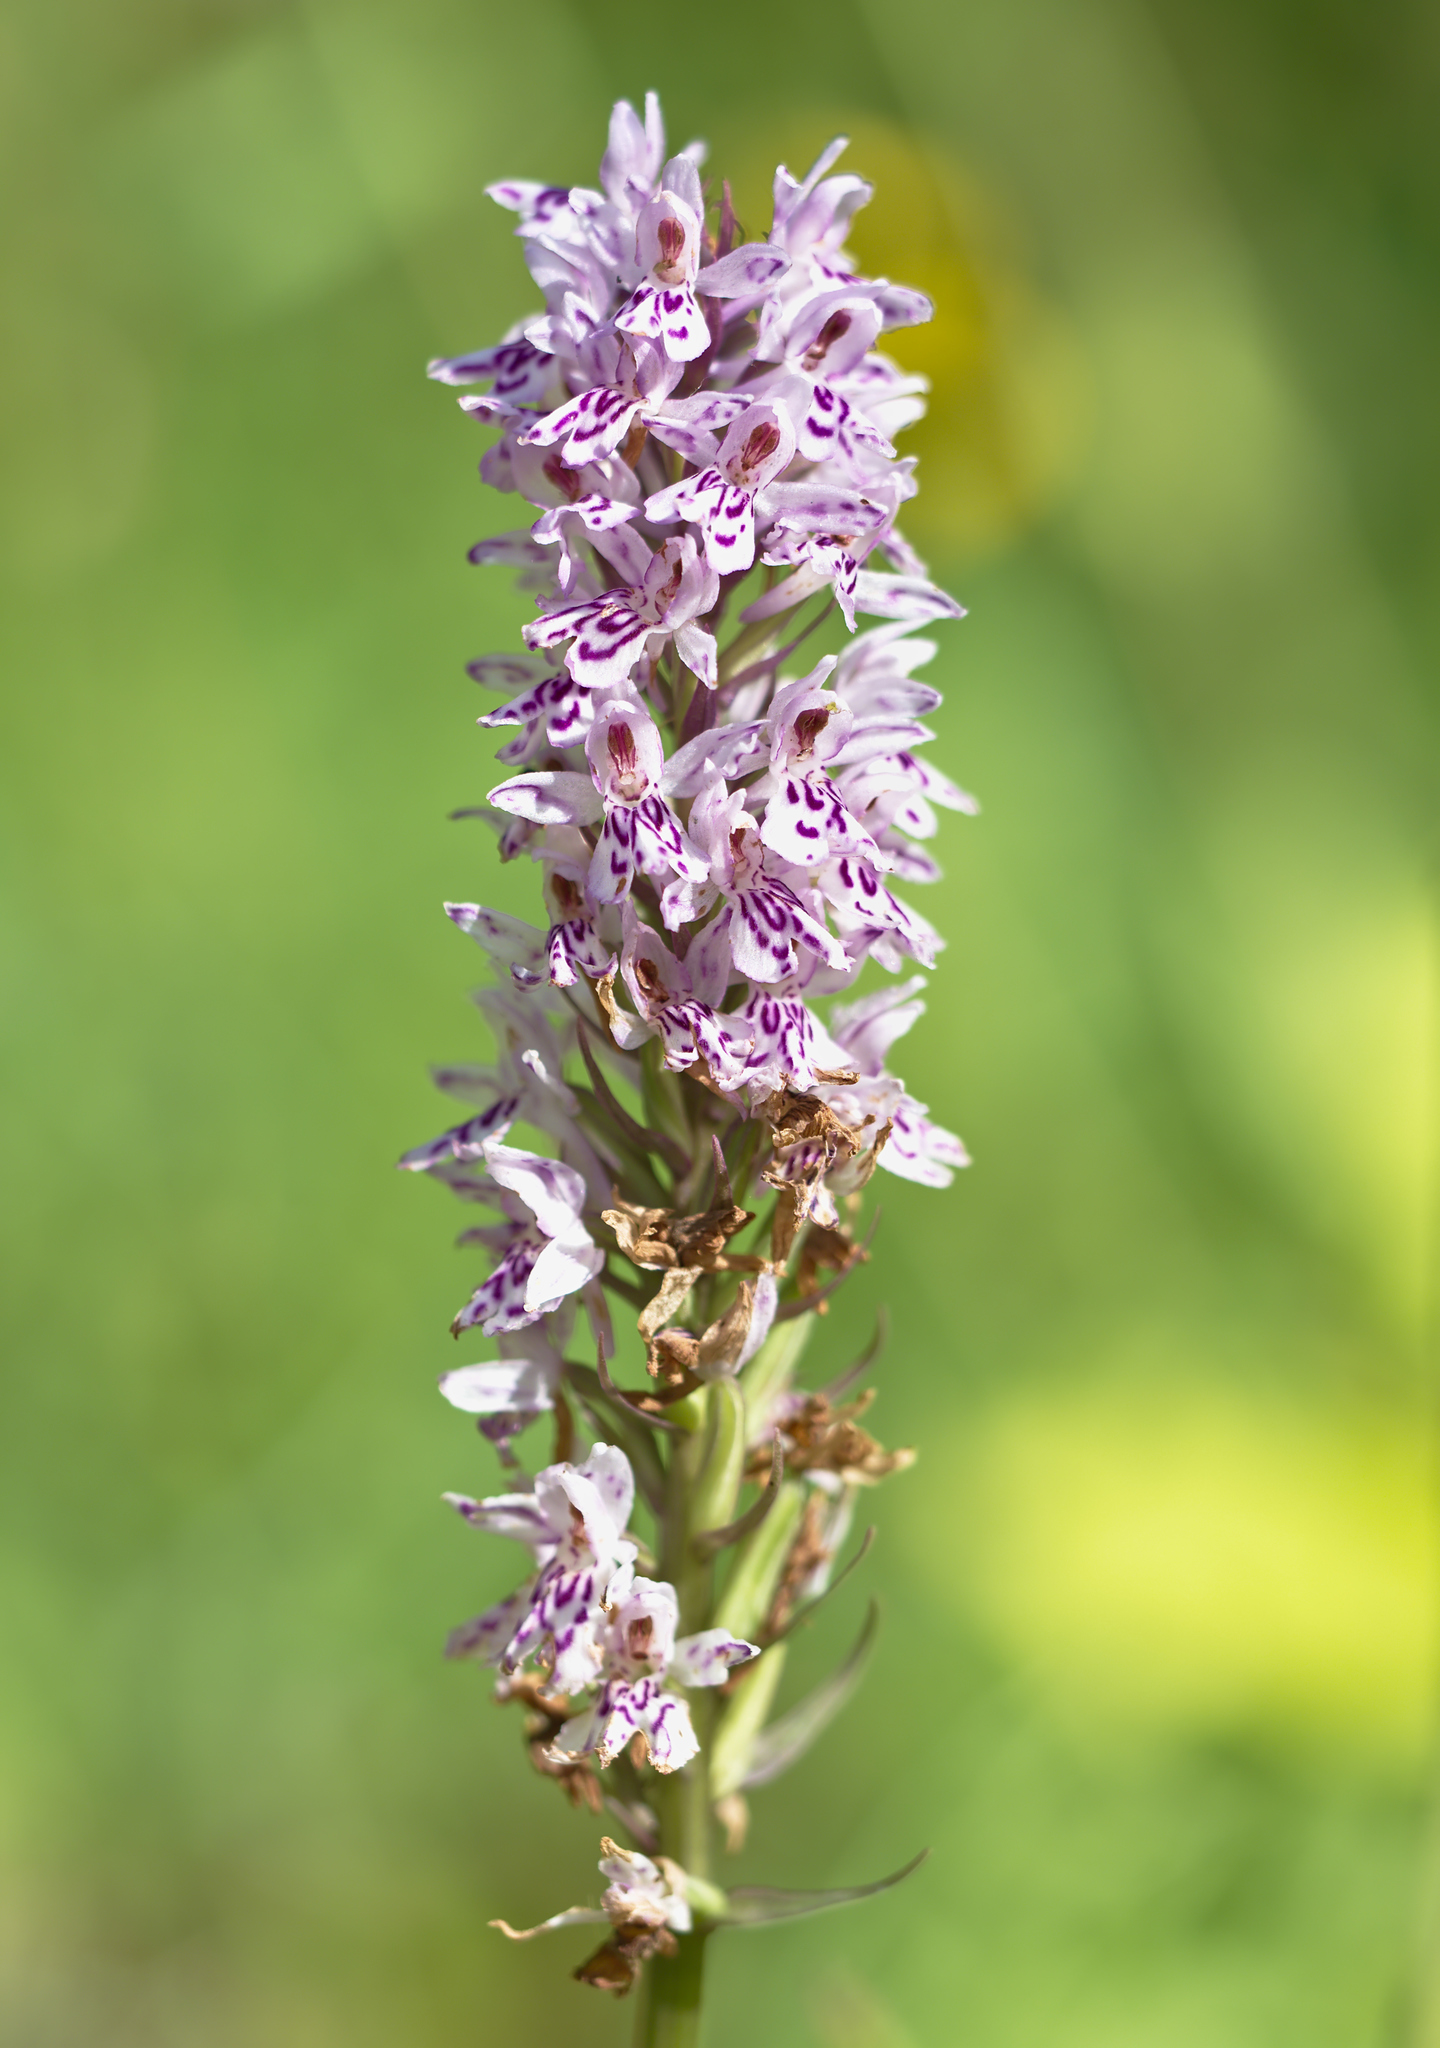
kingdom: Plantae
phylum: Tracheophyta
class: Liliopsida
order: Asparagales
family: Orchidaceae
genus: Dactylorhiza
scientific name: Dactylorhiza maculata
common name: Heath spotted-orchid
